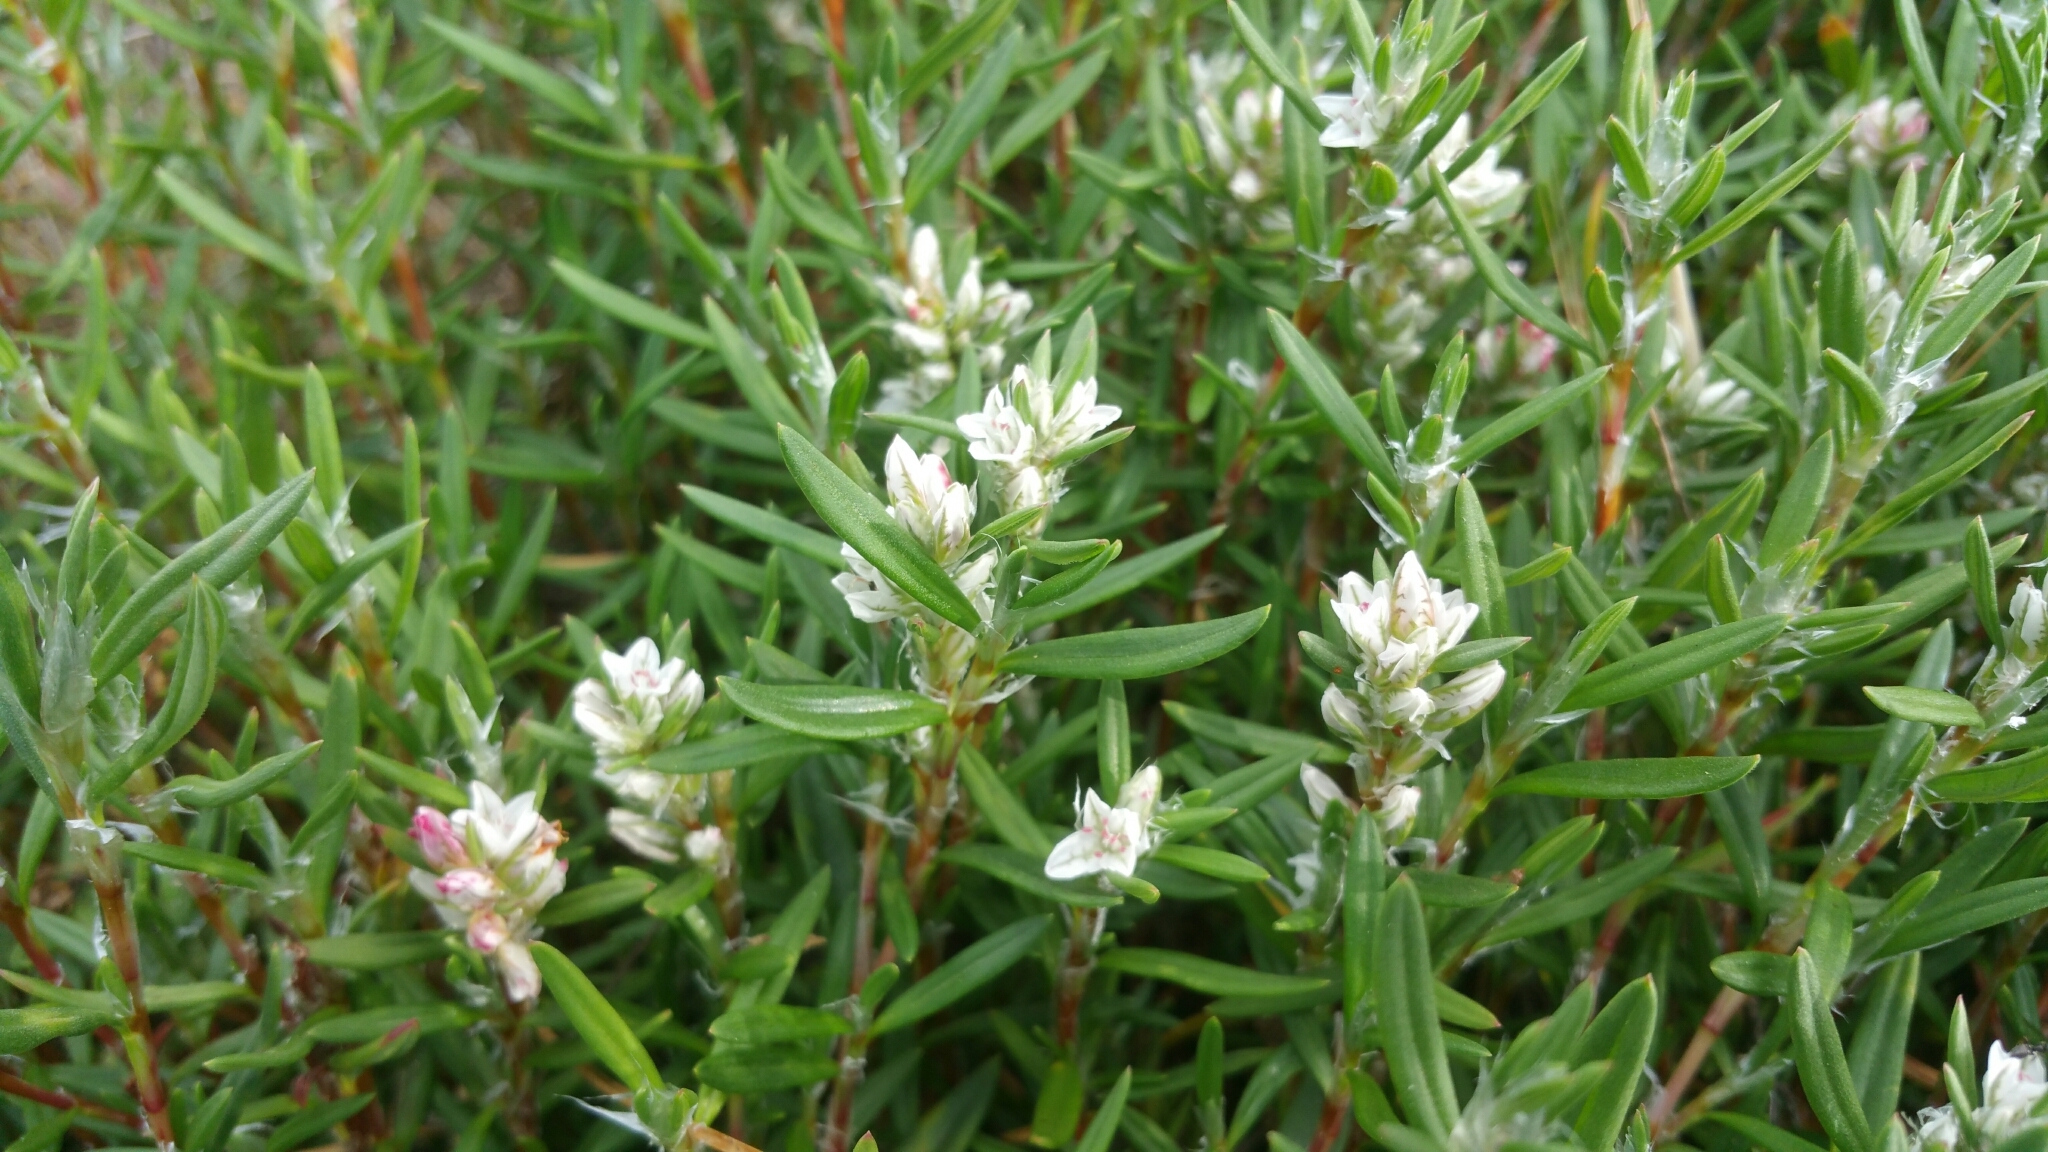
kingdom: Plantae
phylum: Tracheophyta
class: Magnoliopsida
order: Caryophyllales
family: Polygonaceae
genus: Polygonum
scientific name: Polygonum paronychia
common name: Dune knotweed
